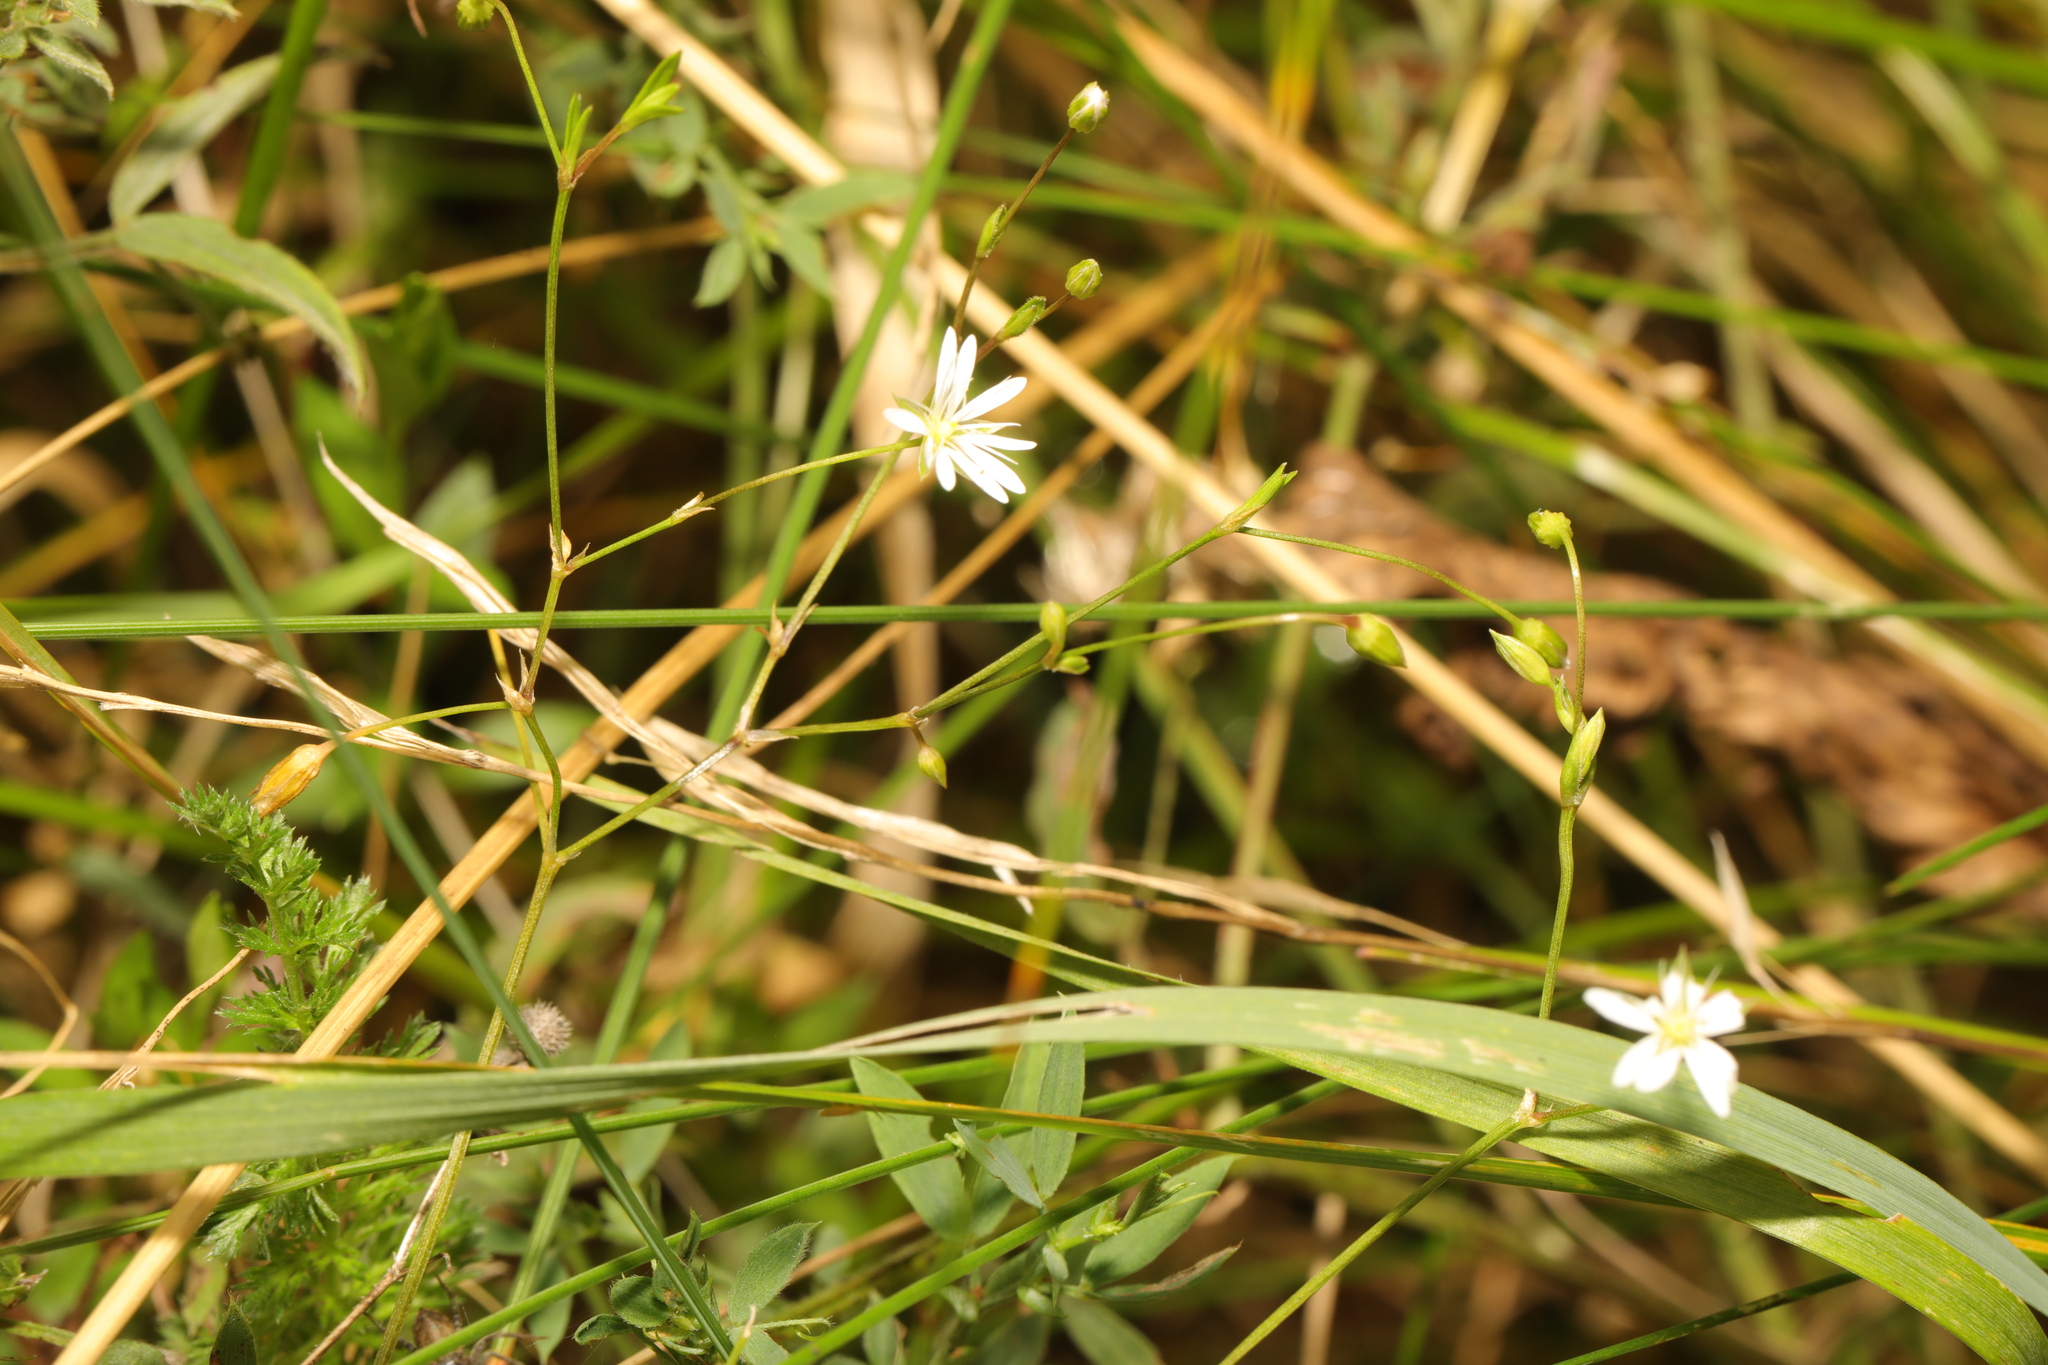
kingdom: Plantae
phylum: Tracheophyta
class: Magnoliopsida
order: Caryophyllales
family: Caryophyllaceae
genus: Stellaria
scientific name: Stellaria graminea
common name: Grass-like starwort
